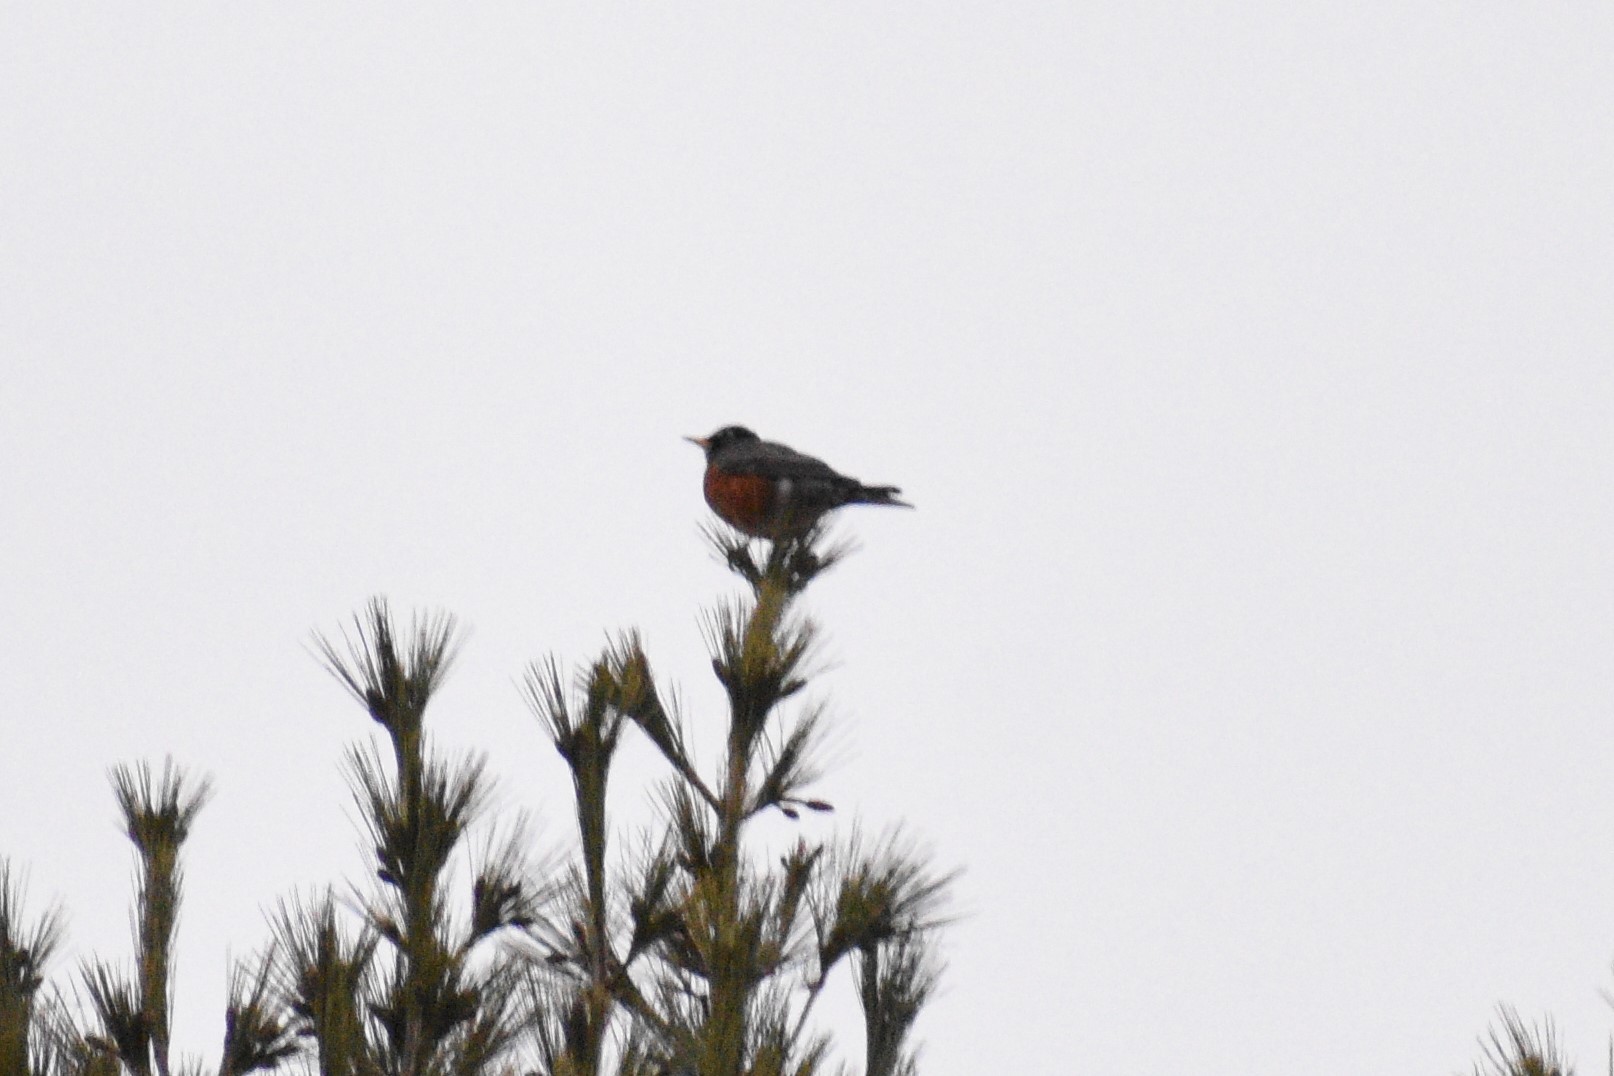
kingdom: Animalia
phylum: Chordata
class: Aves
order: Passeriformes
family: Turdidae
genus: Turdus
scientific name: Turdus migratorius
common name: American robin
